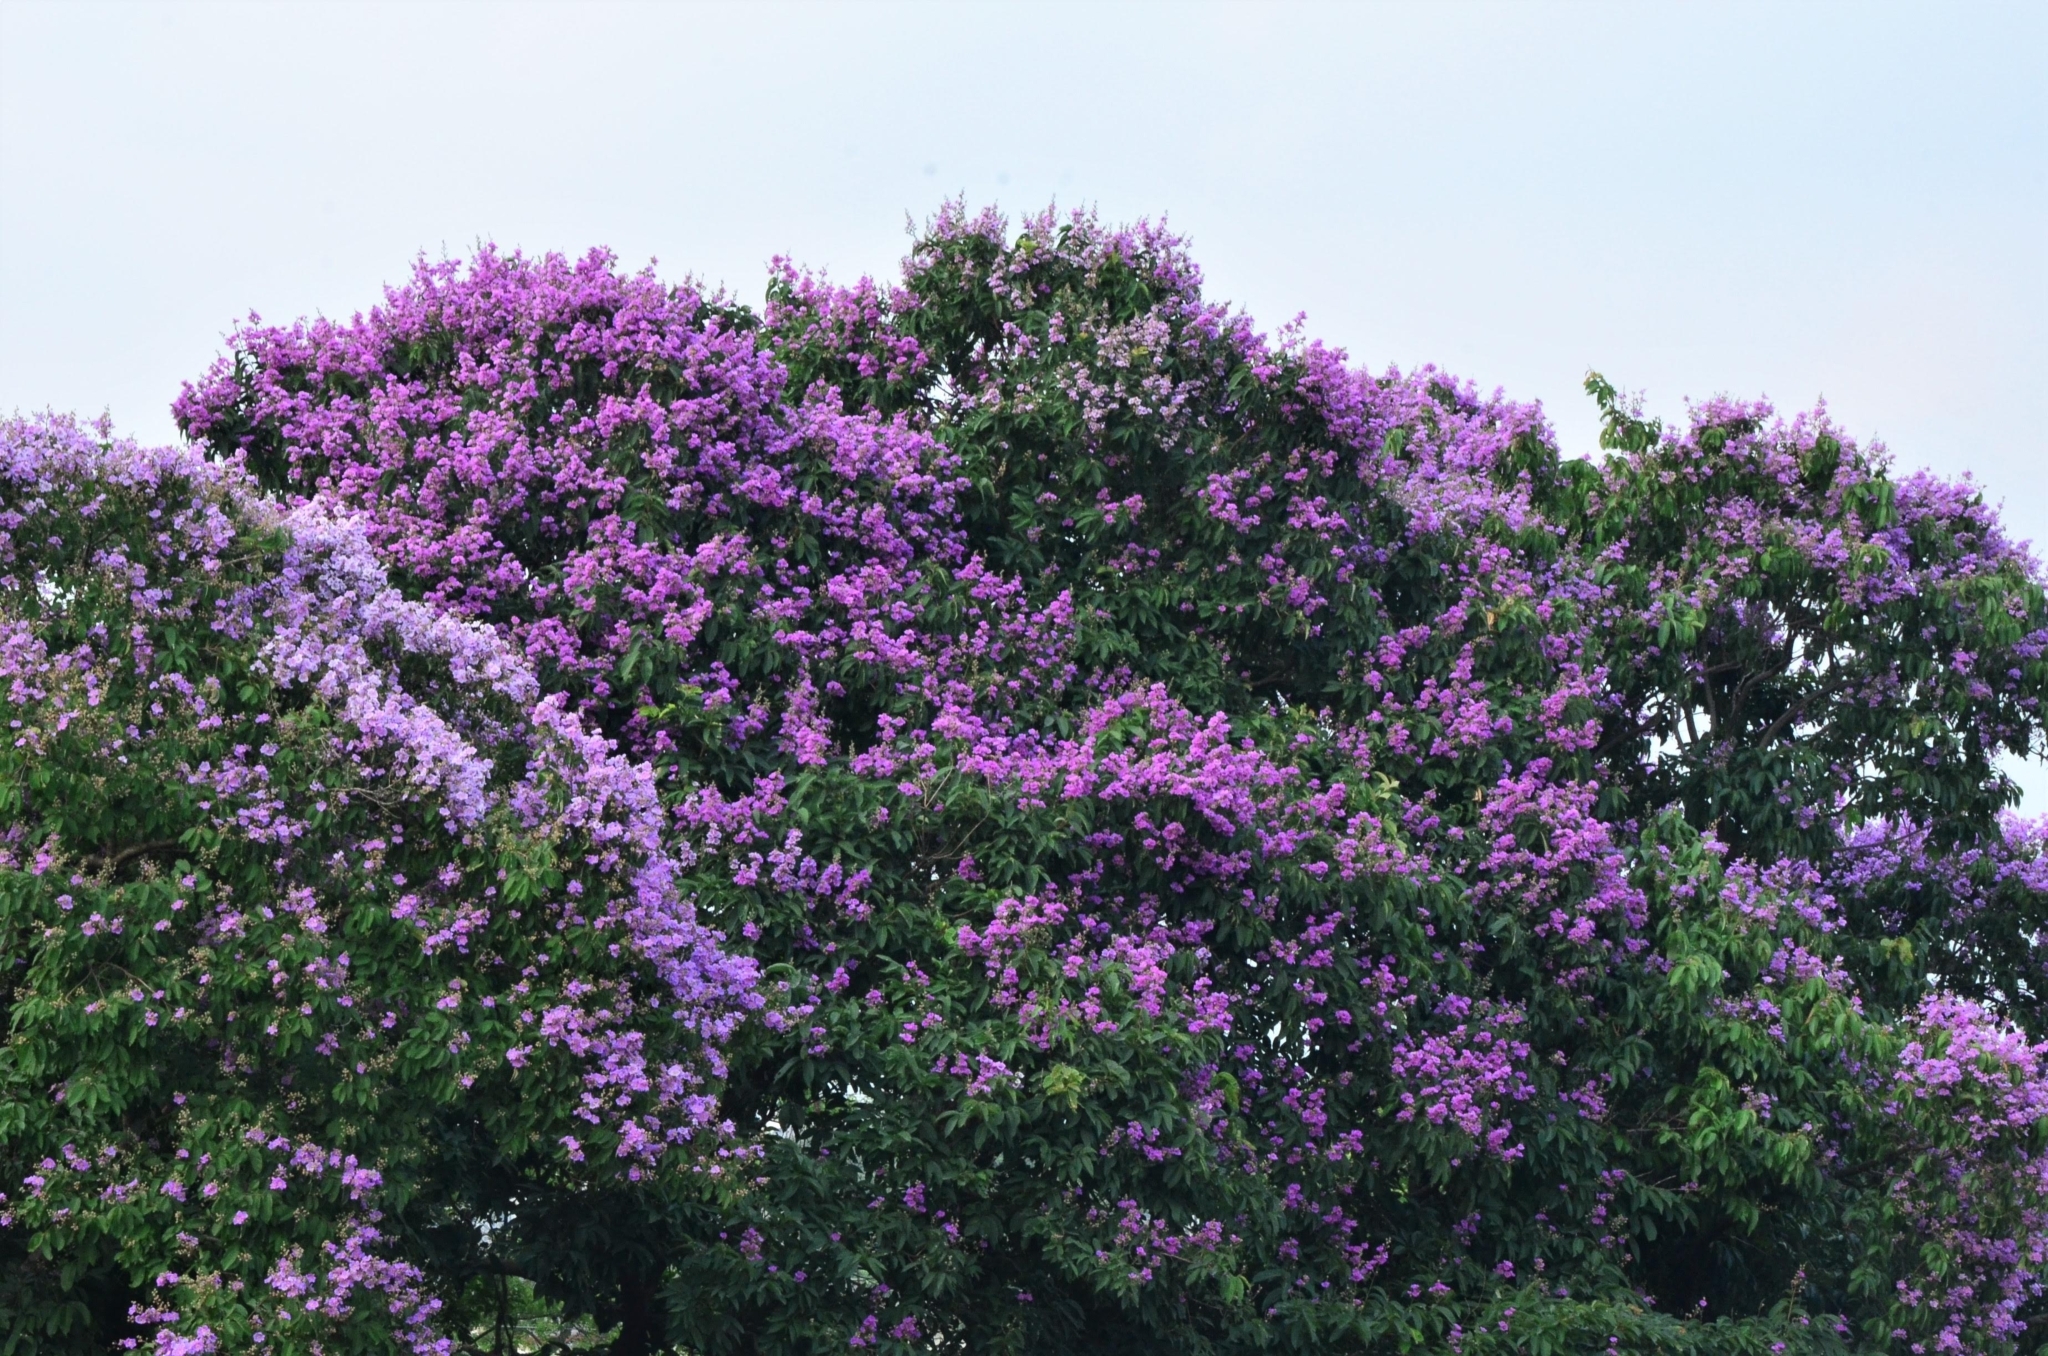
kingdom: Plantae
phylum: Tracheophyta
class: Magnoliopsida
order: Myrtales
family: Lythraceae
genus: Lagerstroemia
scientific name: Lagerstroemia speciosa
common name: Queen's crape-myrtle
